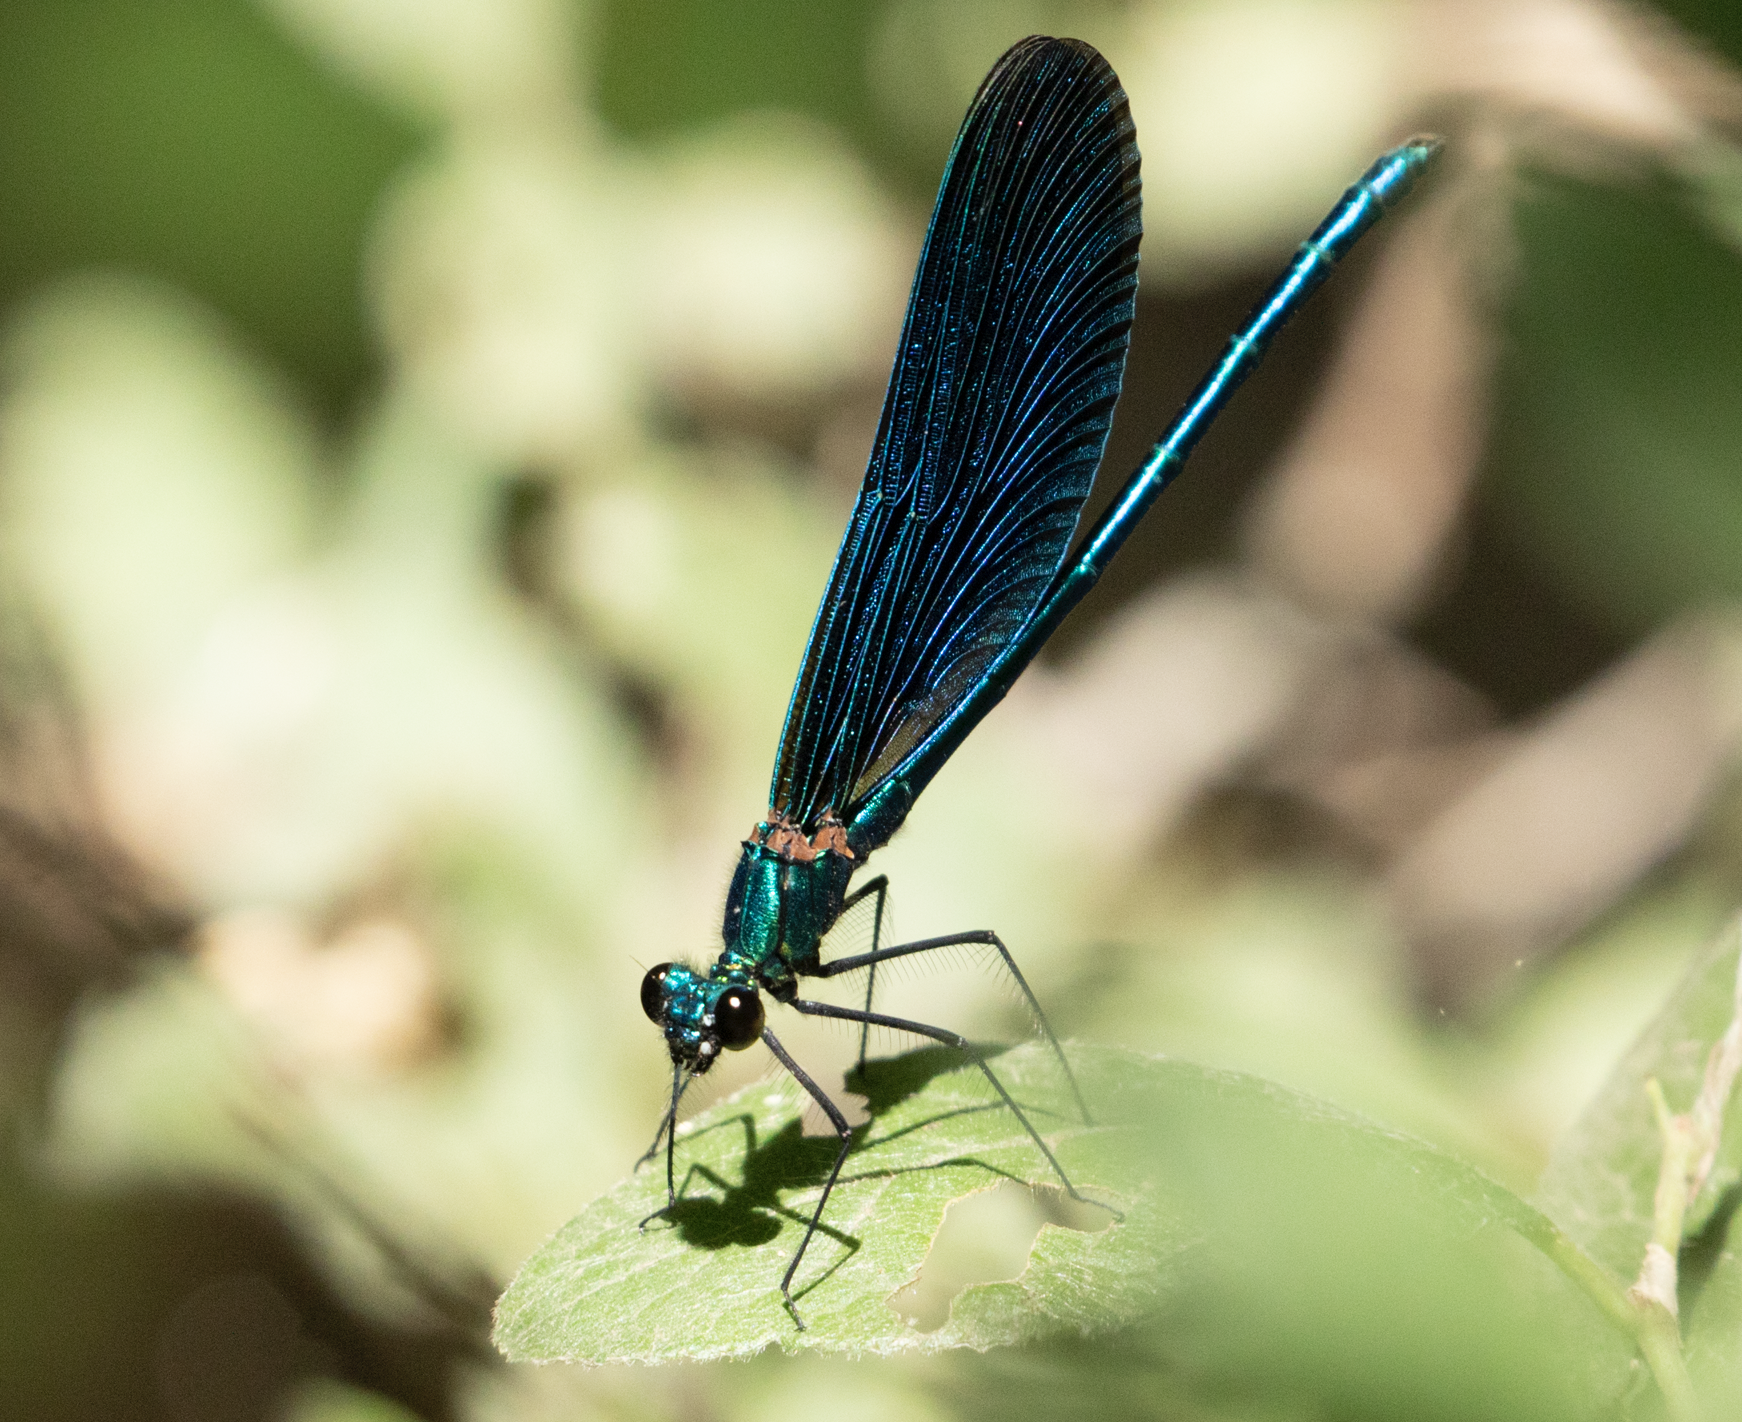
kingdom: Animalia
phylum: Arthropoda
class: Insecta
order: Odonata
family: Calopterygidae
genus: Calopteryx
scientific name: Calopteryx virgo
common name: Beautiful demoiselle
